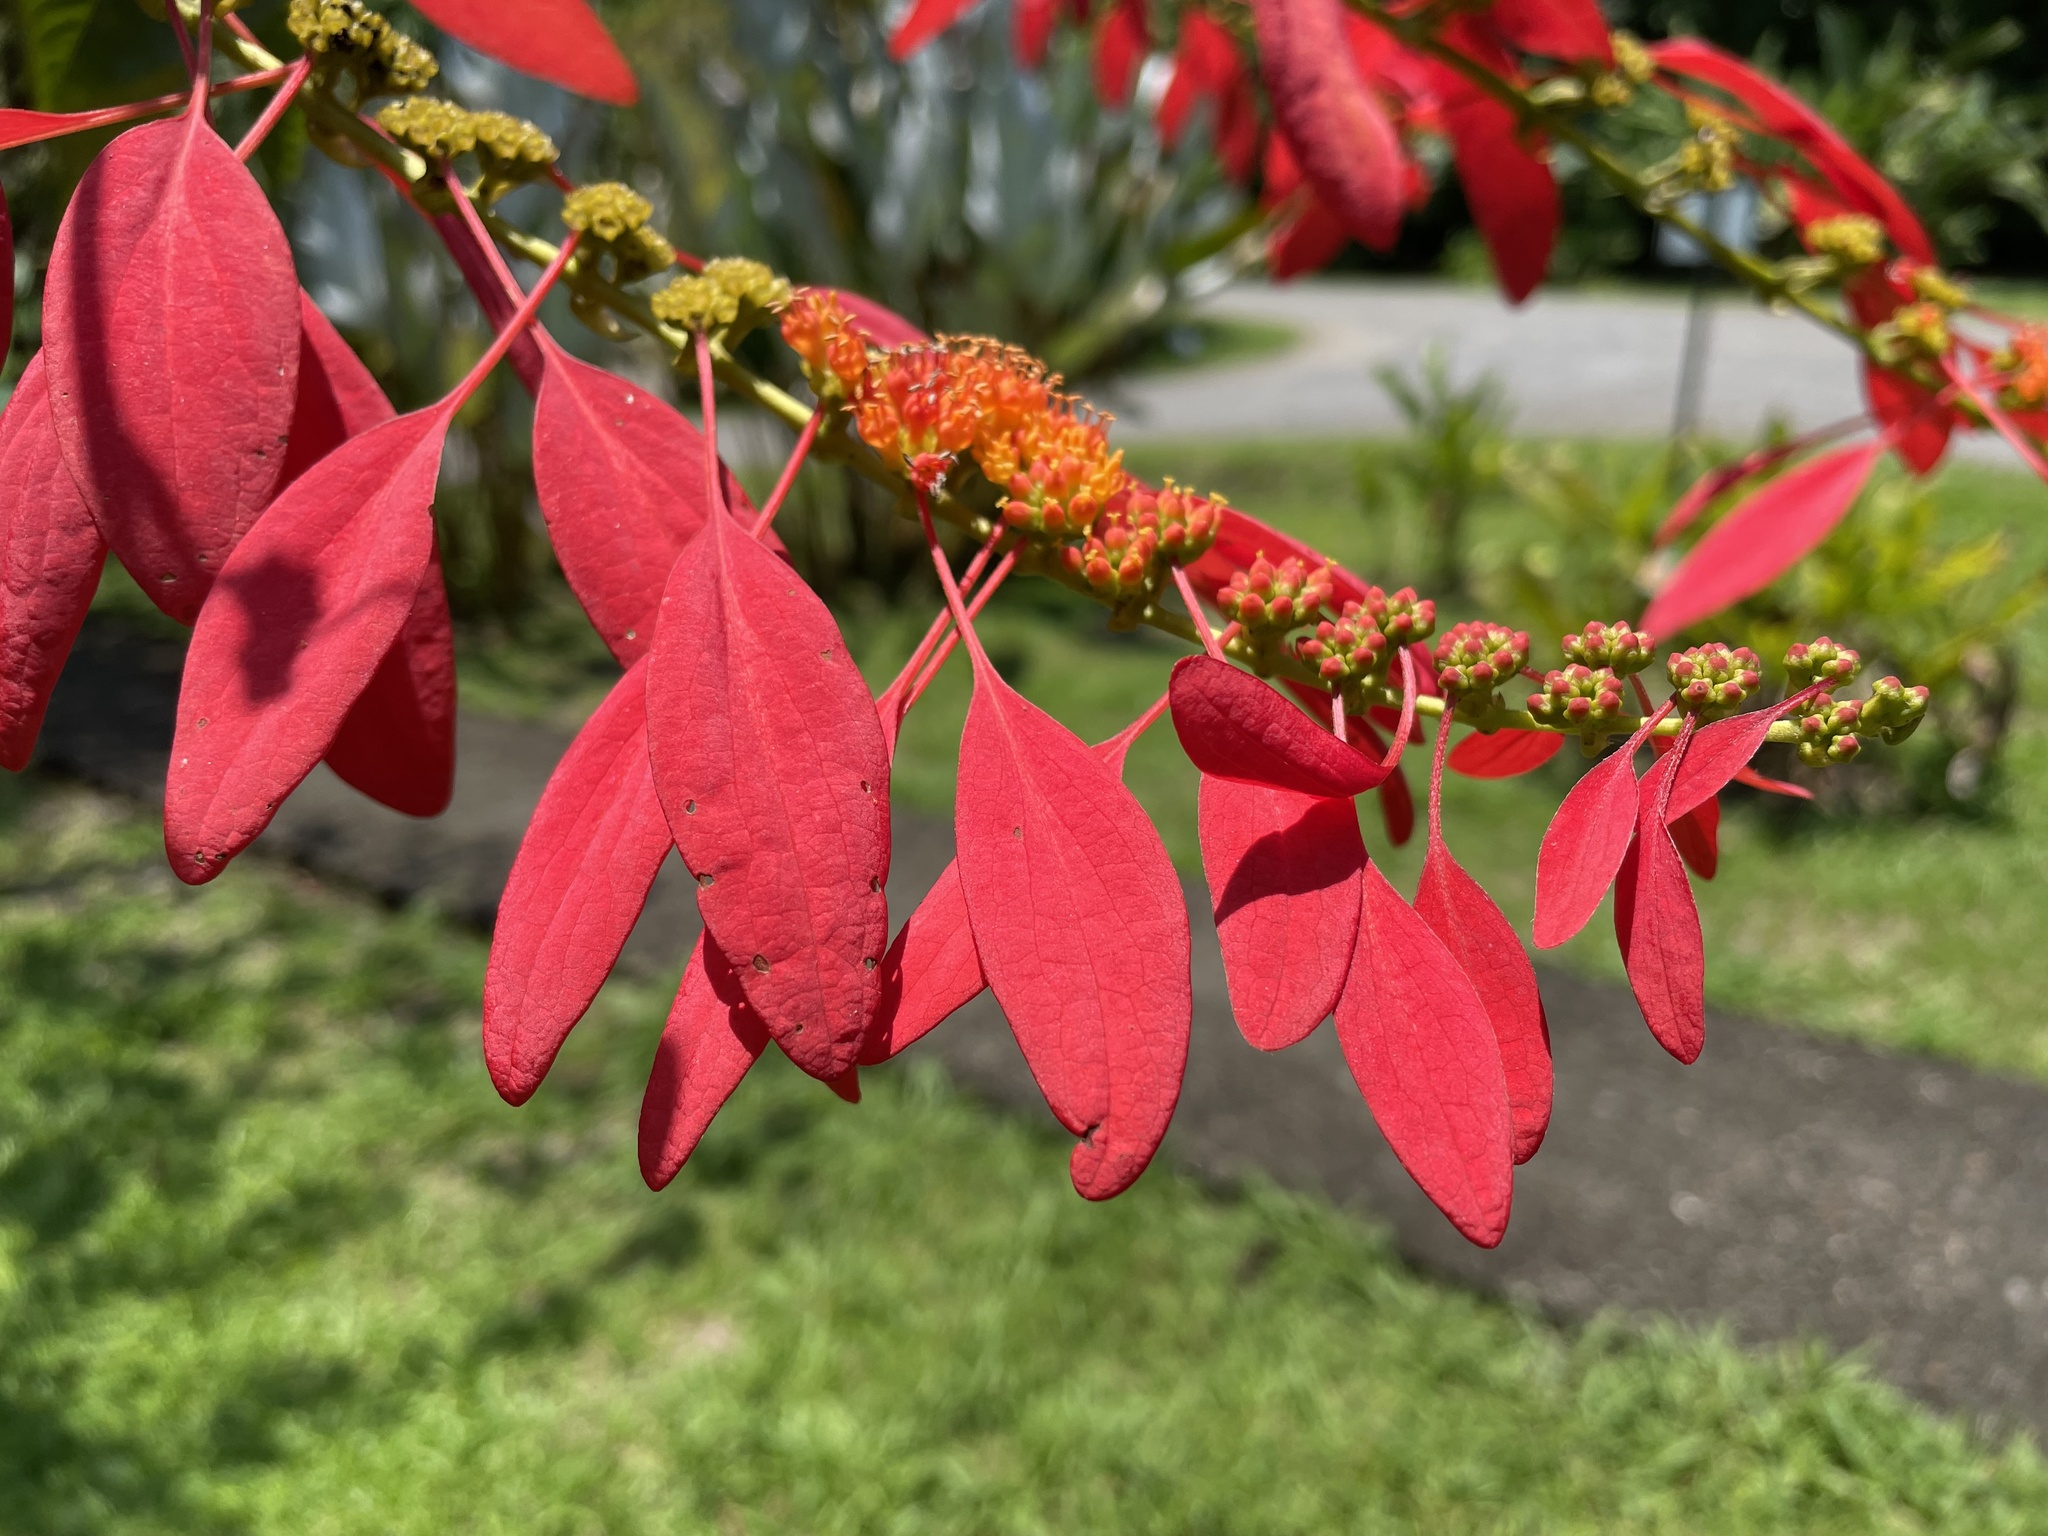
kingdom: Plantae
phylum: Tracheophyta
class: Magnoliopsida
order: Gentianales
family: Rubiaceae
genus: Warszewiczia
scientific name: Warszewiczia coccinea
